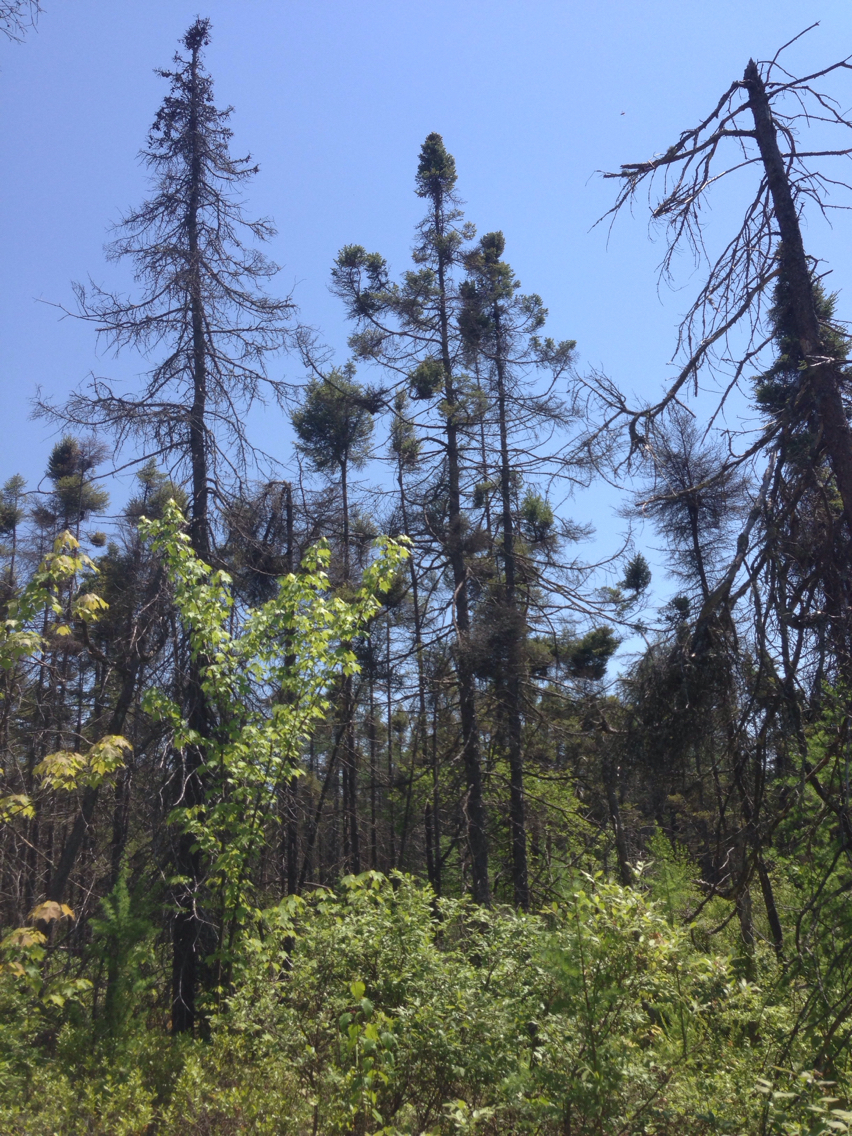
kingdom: Plantae
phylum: Tracheophyta
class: Magnoliopsida
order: Sapindales
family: Sapindaceae
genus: Acer
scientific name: Acer rubrum
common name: Red maple
